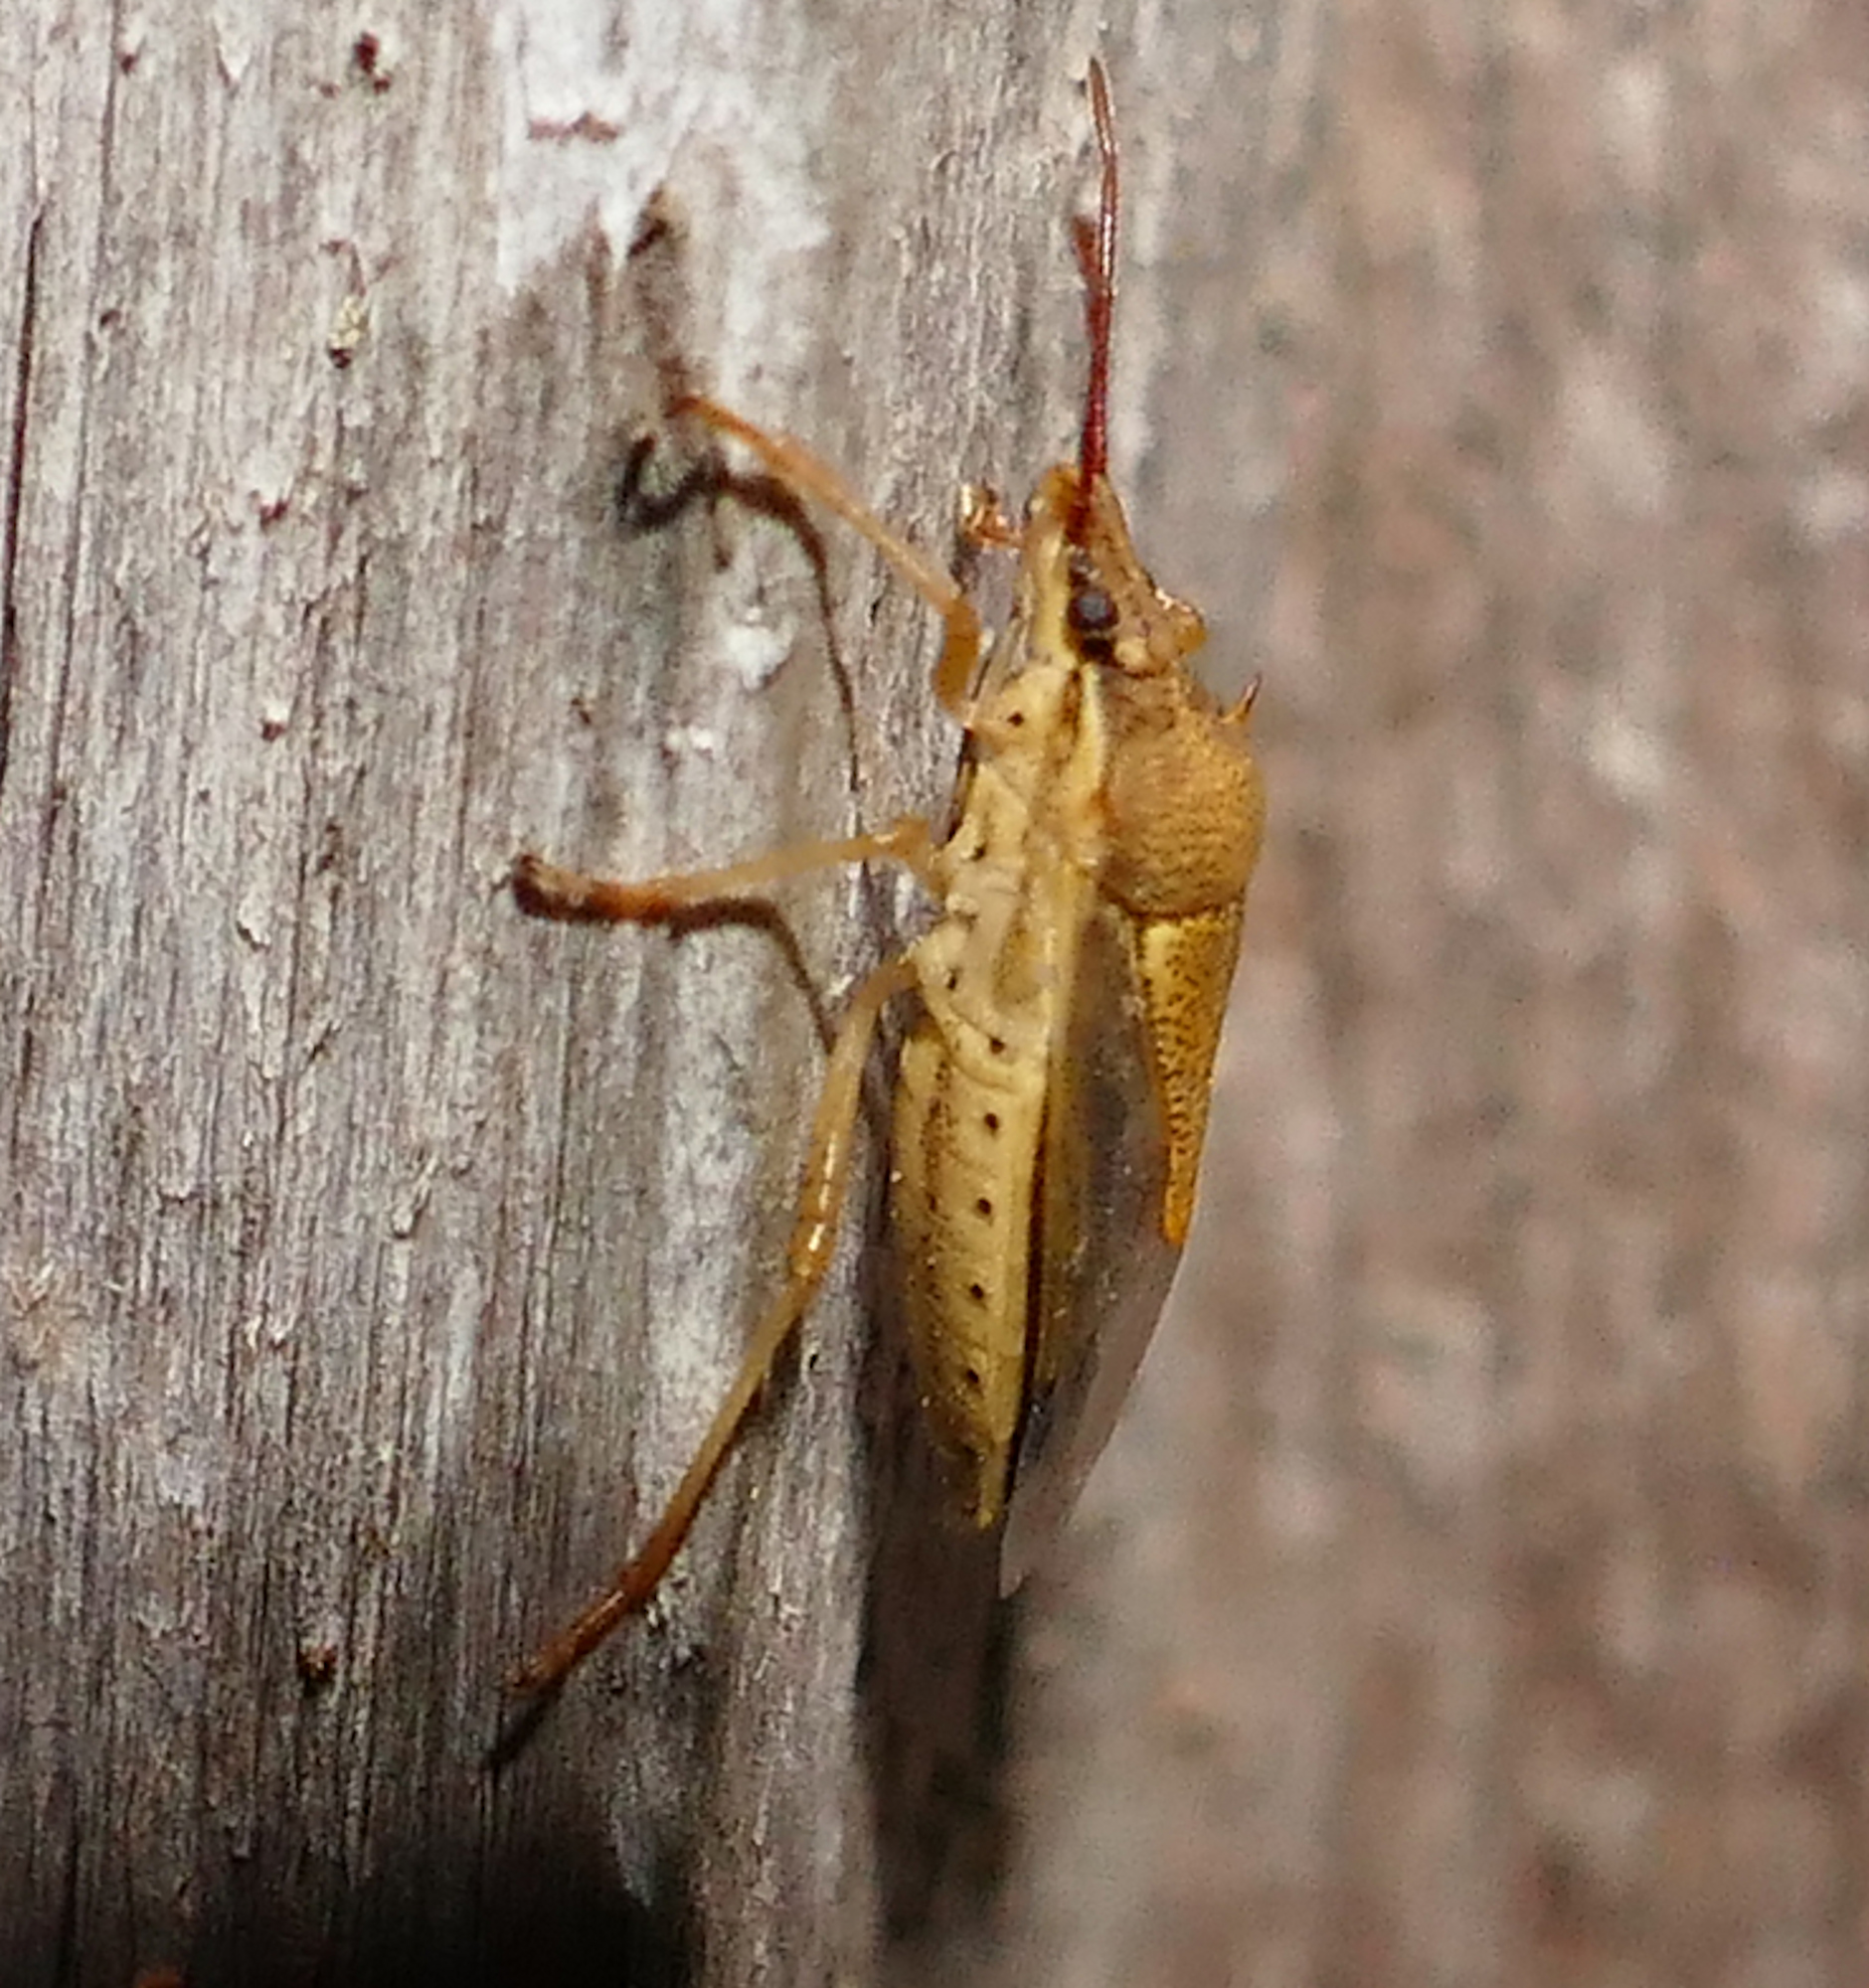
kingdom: Animalia
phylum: Arthropoda
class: Insecta
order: Hemiptera
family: Pentatomidae
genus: Oebalus
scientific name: Oebalus pugnax
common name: Rice stink bug
